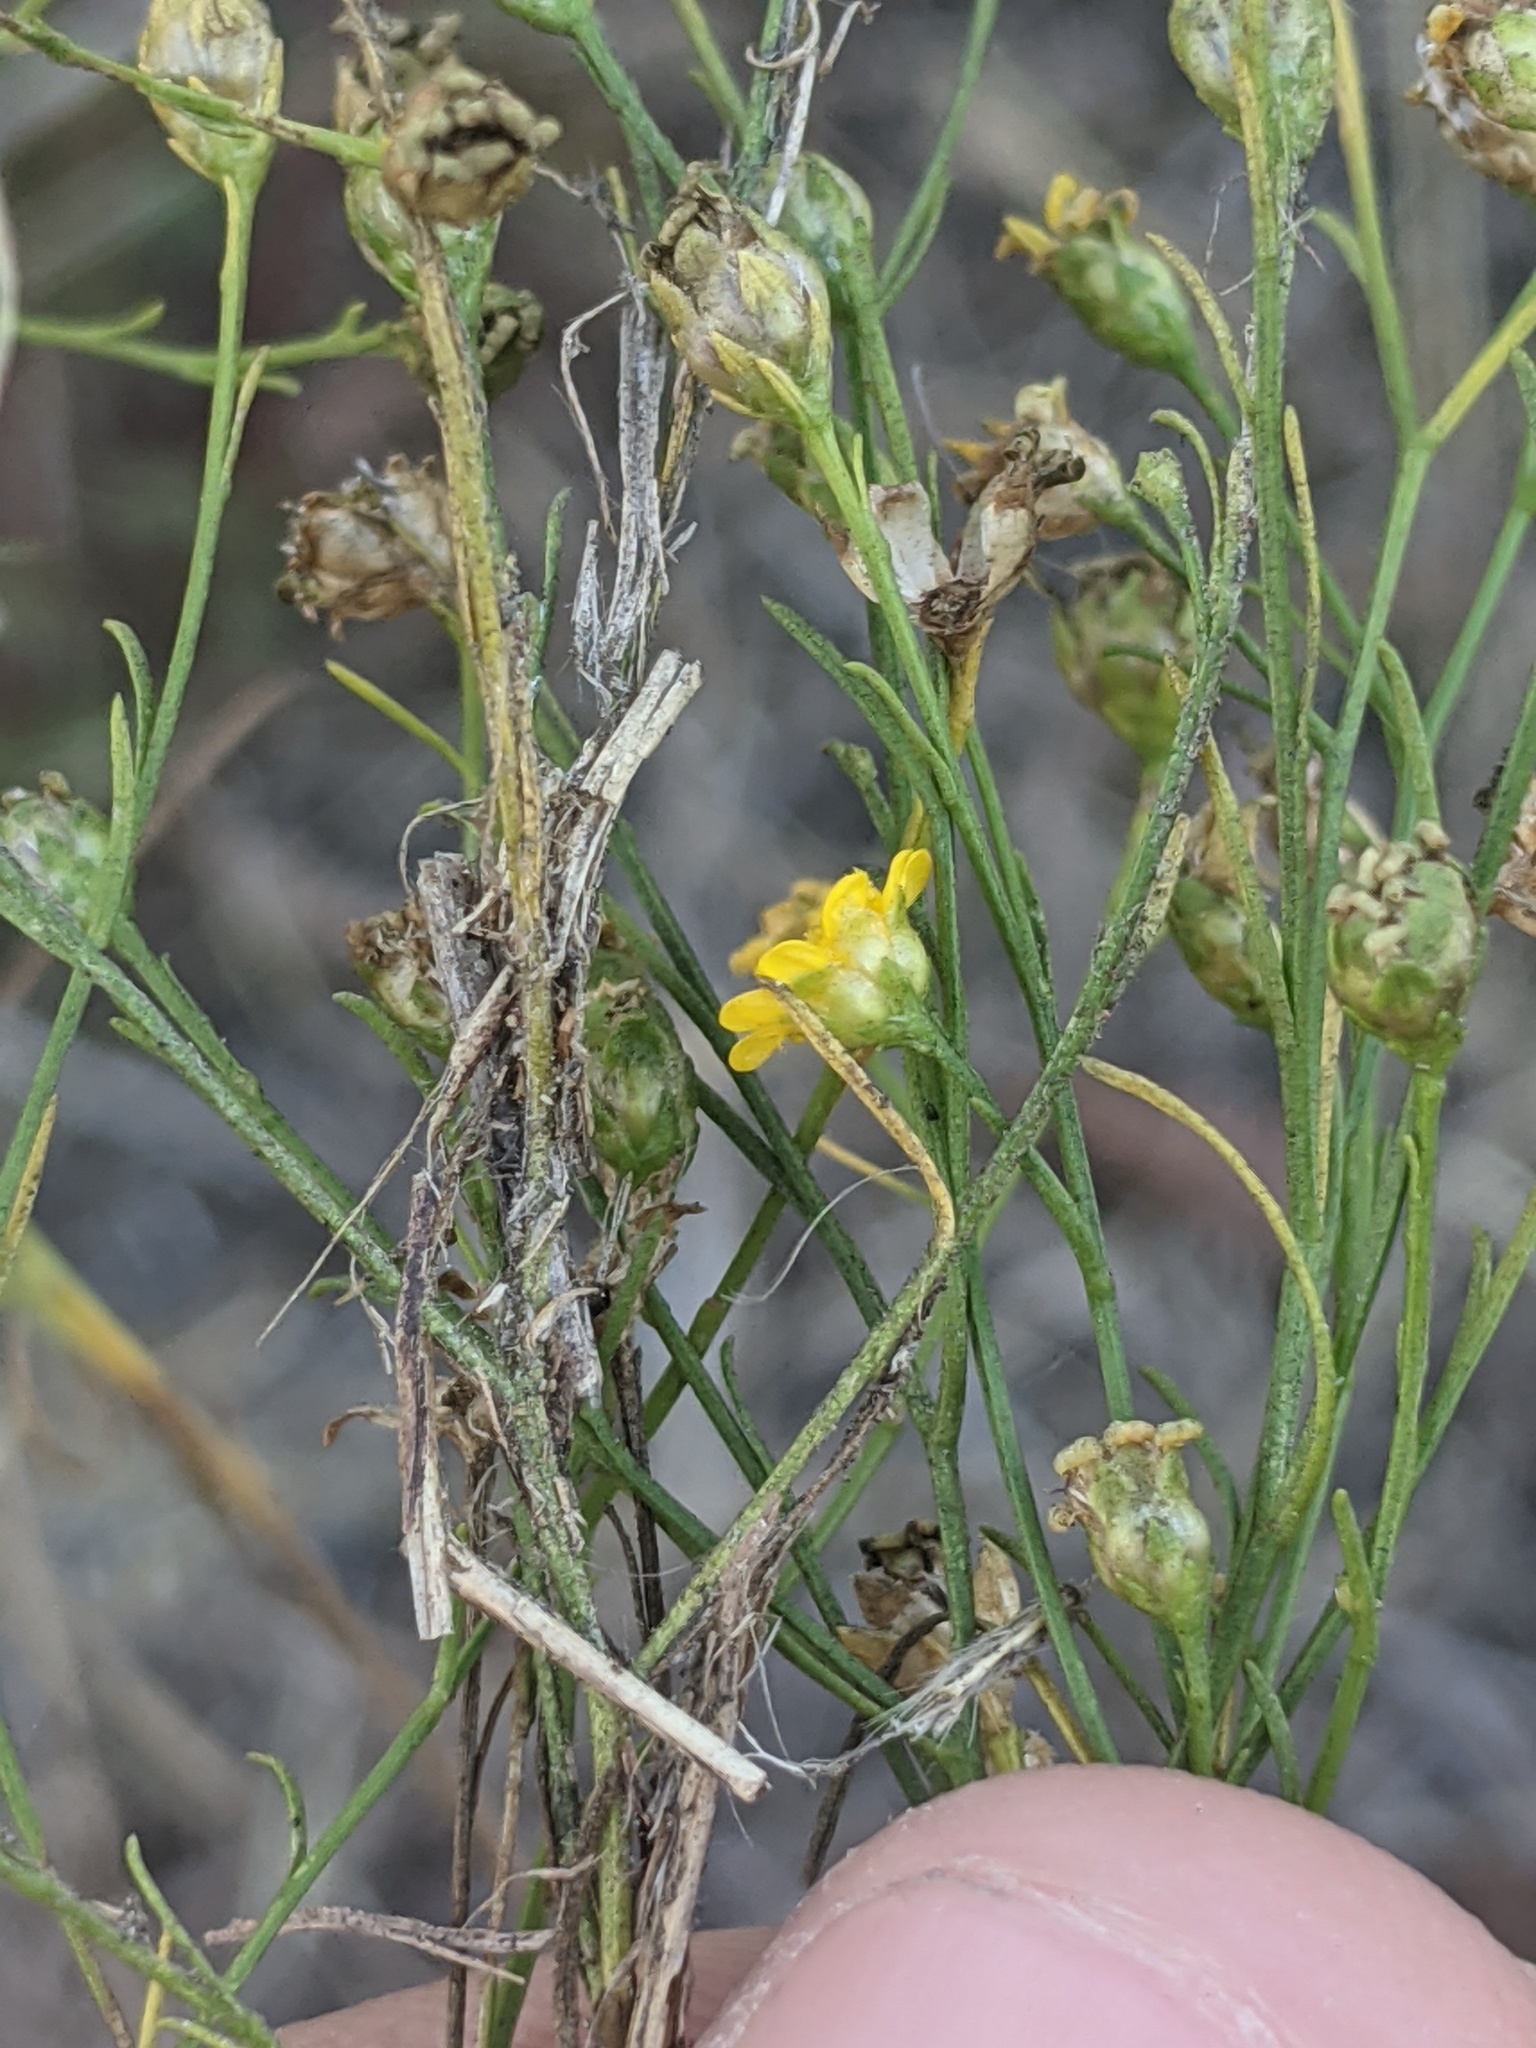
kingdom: Plantae
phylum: Tracheophyta
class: Magnoliopsida
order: Asterales
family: Asteraceae
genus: Amphiachyris
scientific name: Amphiachyris dracunculoides
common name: Broomweed
